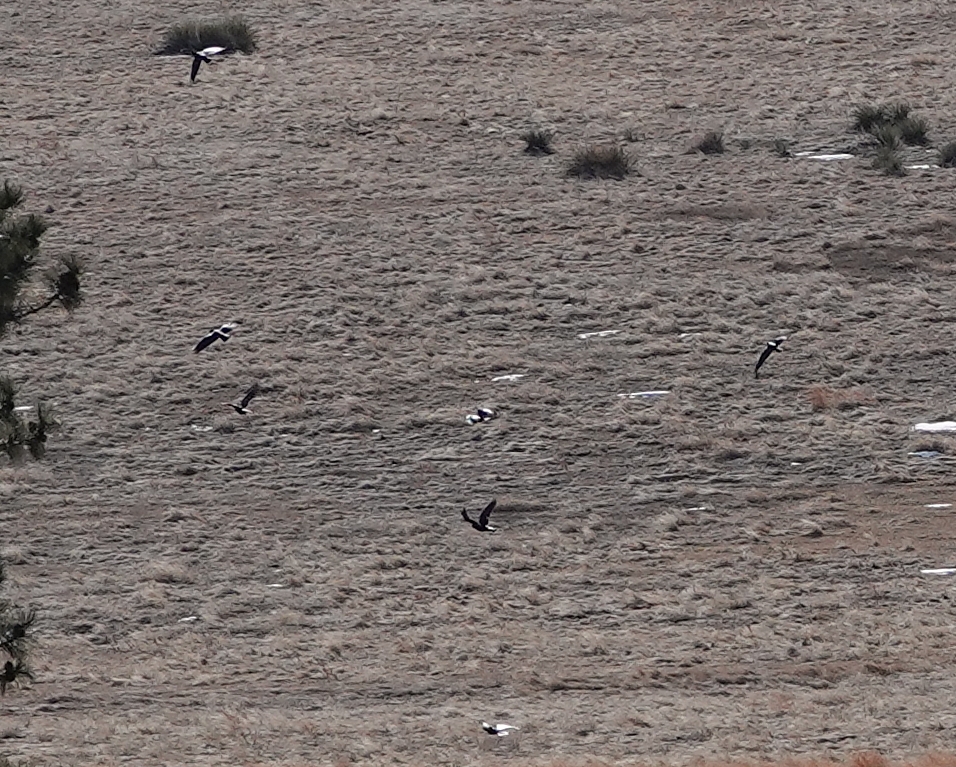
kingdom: Animalia
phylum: Chordata
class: Aves
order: Passeriformes
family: Corvidae
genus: Corvus
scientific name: Corvus brachyrhynchos
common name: American crow
